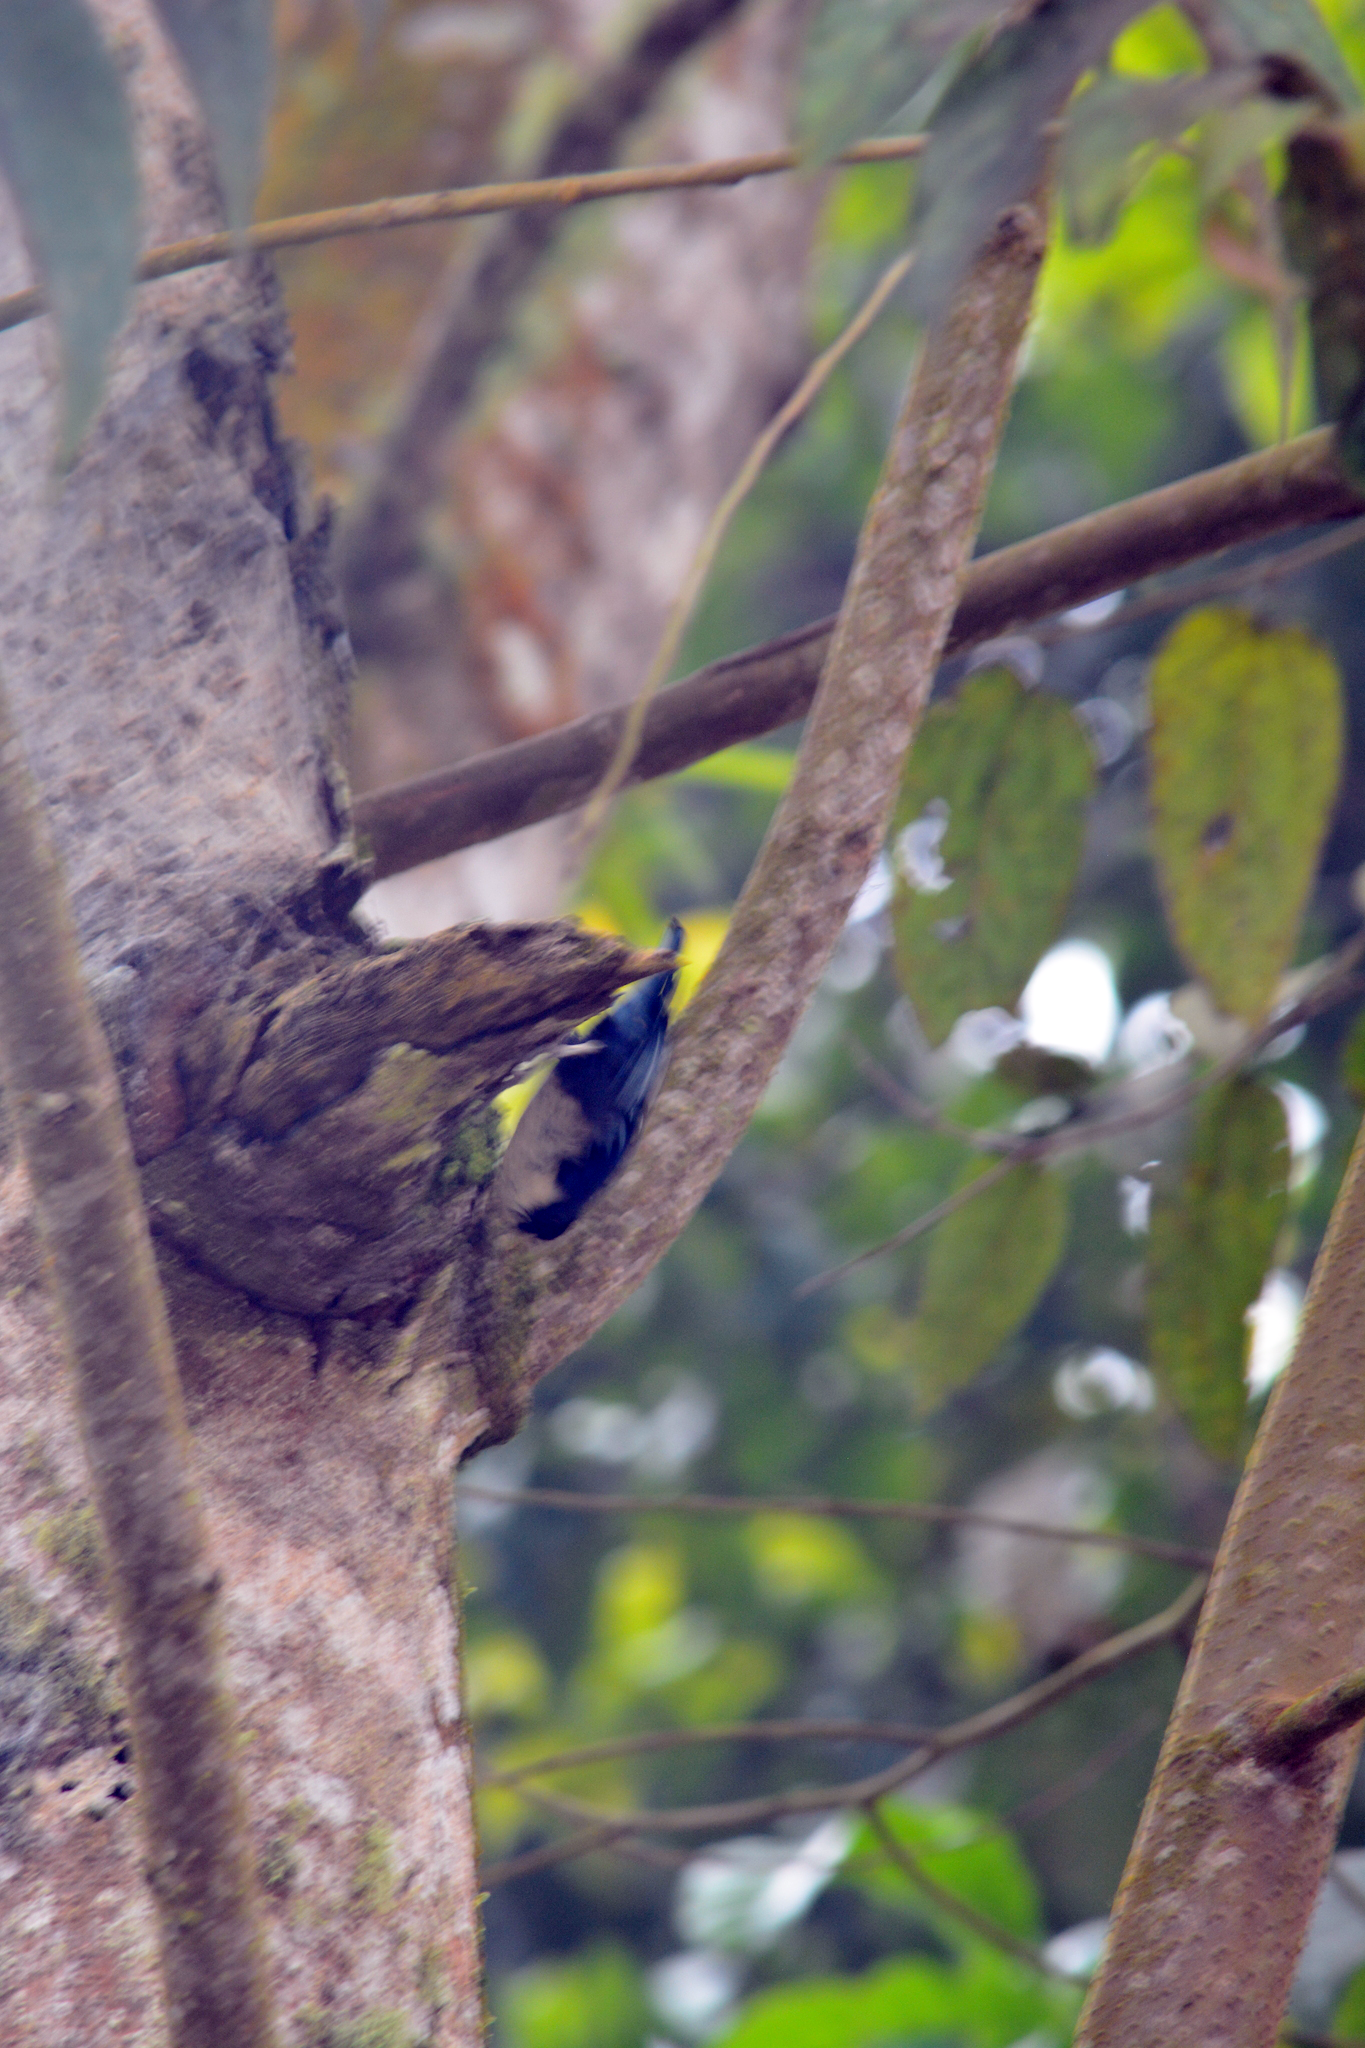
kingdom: Animalia
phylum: Chordata
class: Aves
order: Passeriformes
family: Sittidae
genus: Sitta
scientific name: Sitta azurea
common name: Blue nuthatch
